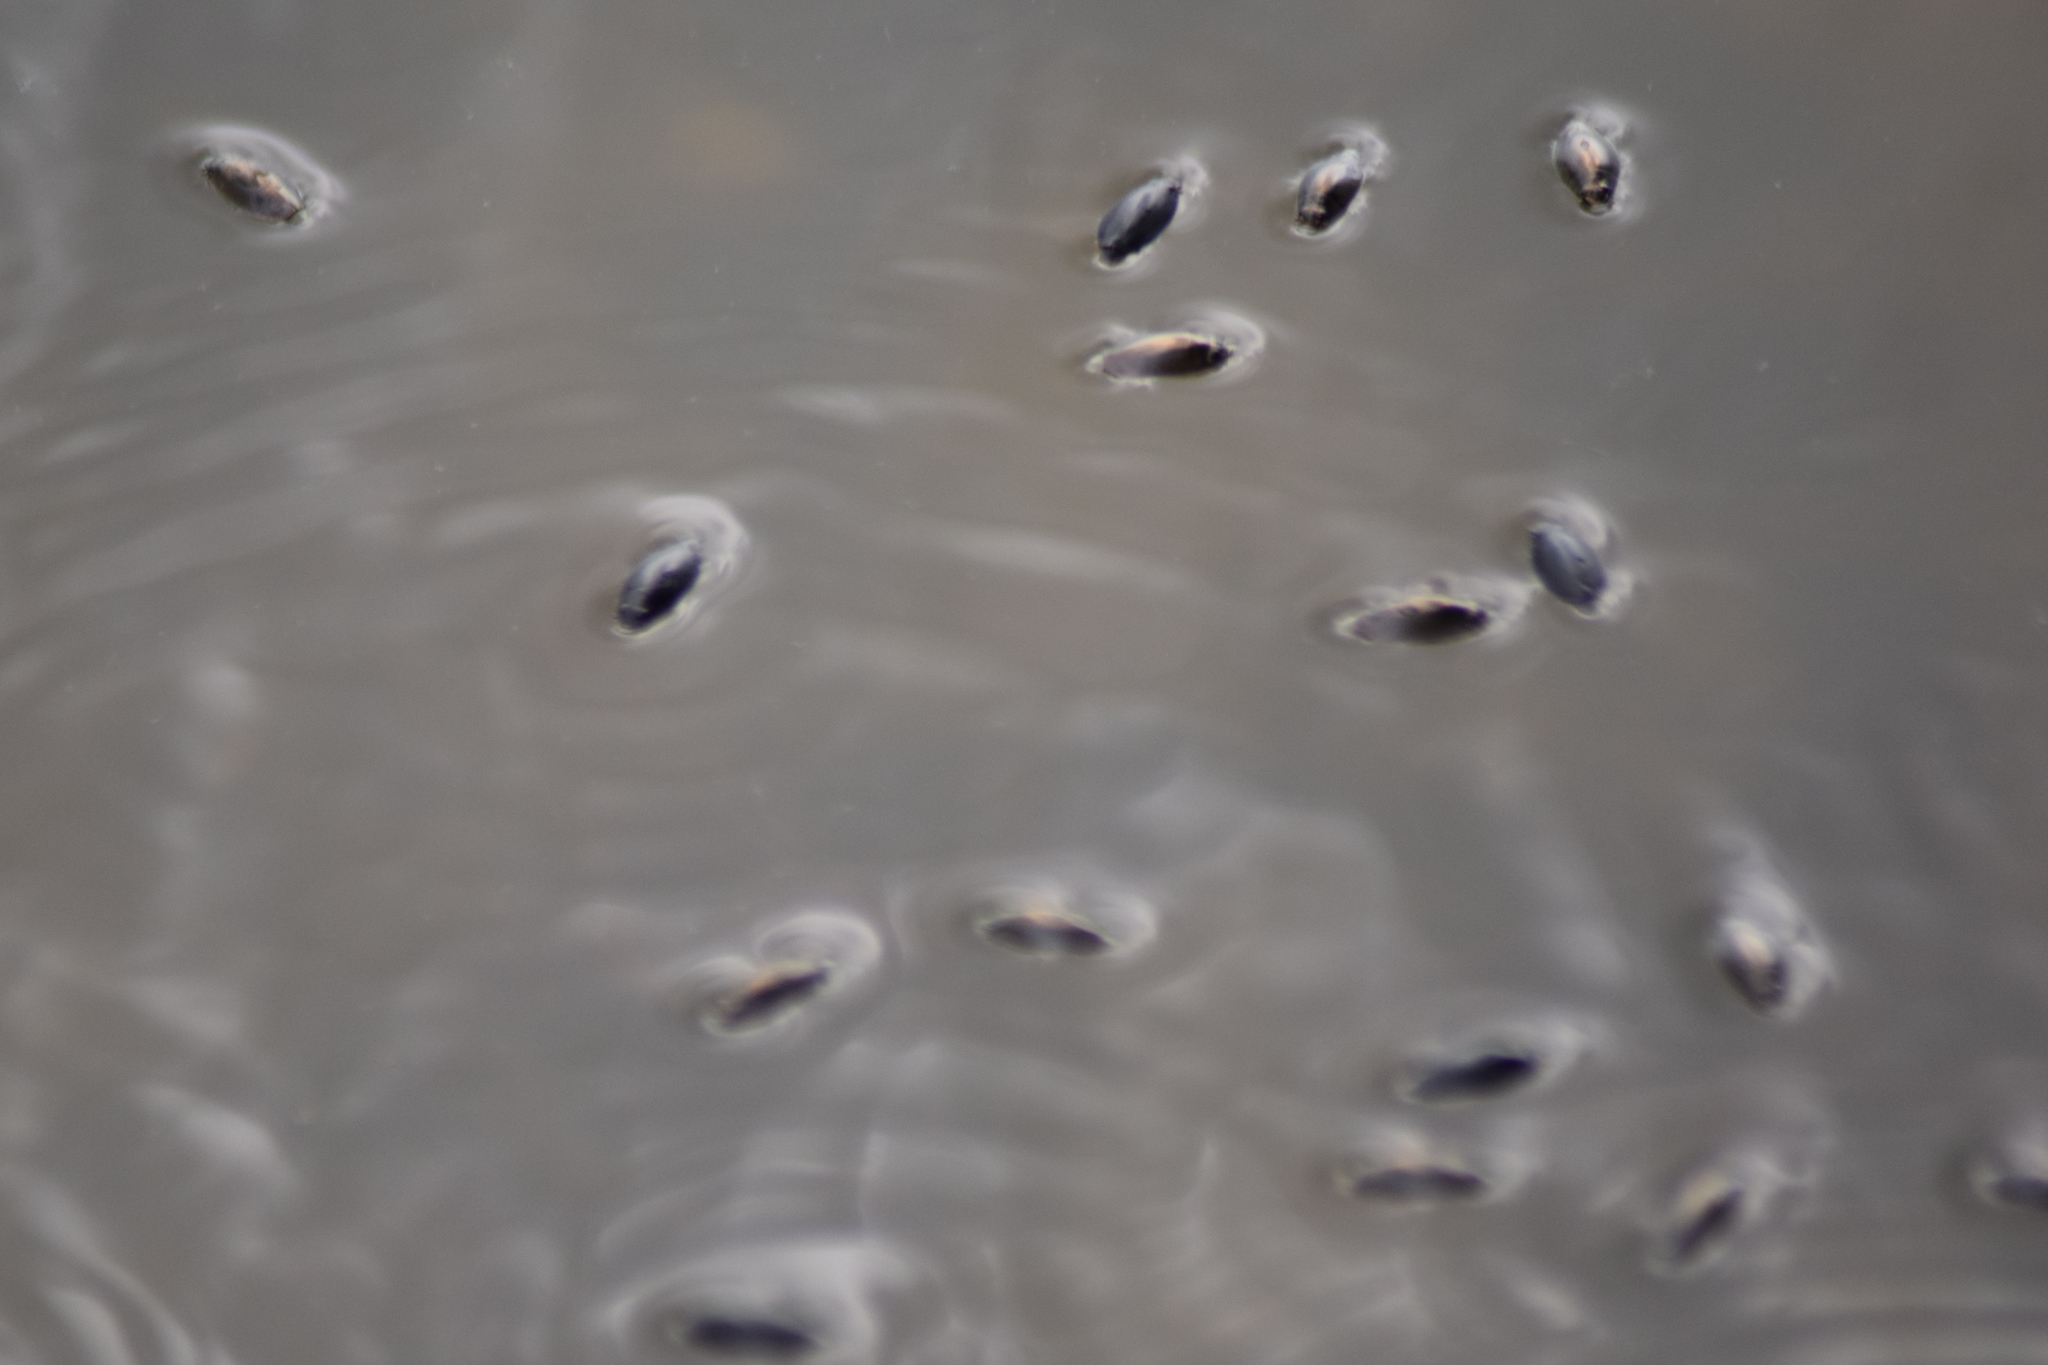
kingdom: Animalia
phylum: Arthropoda
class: Insecta
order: Coleoptera
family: Gyrinidae
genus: Dineutus
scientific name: Dineutus
